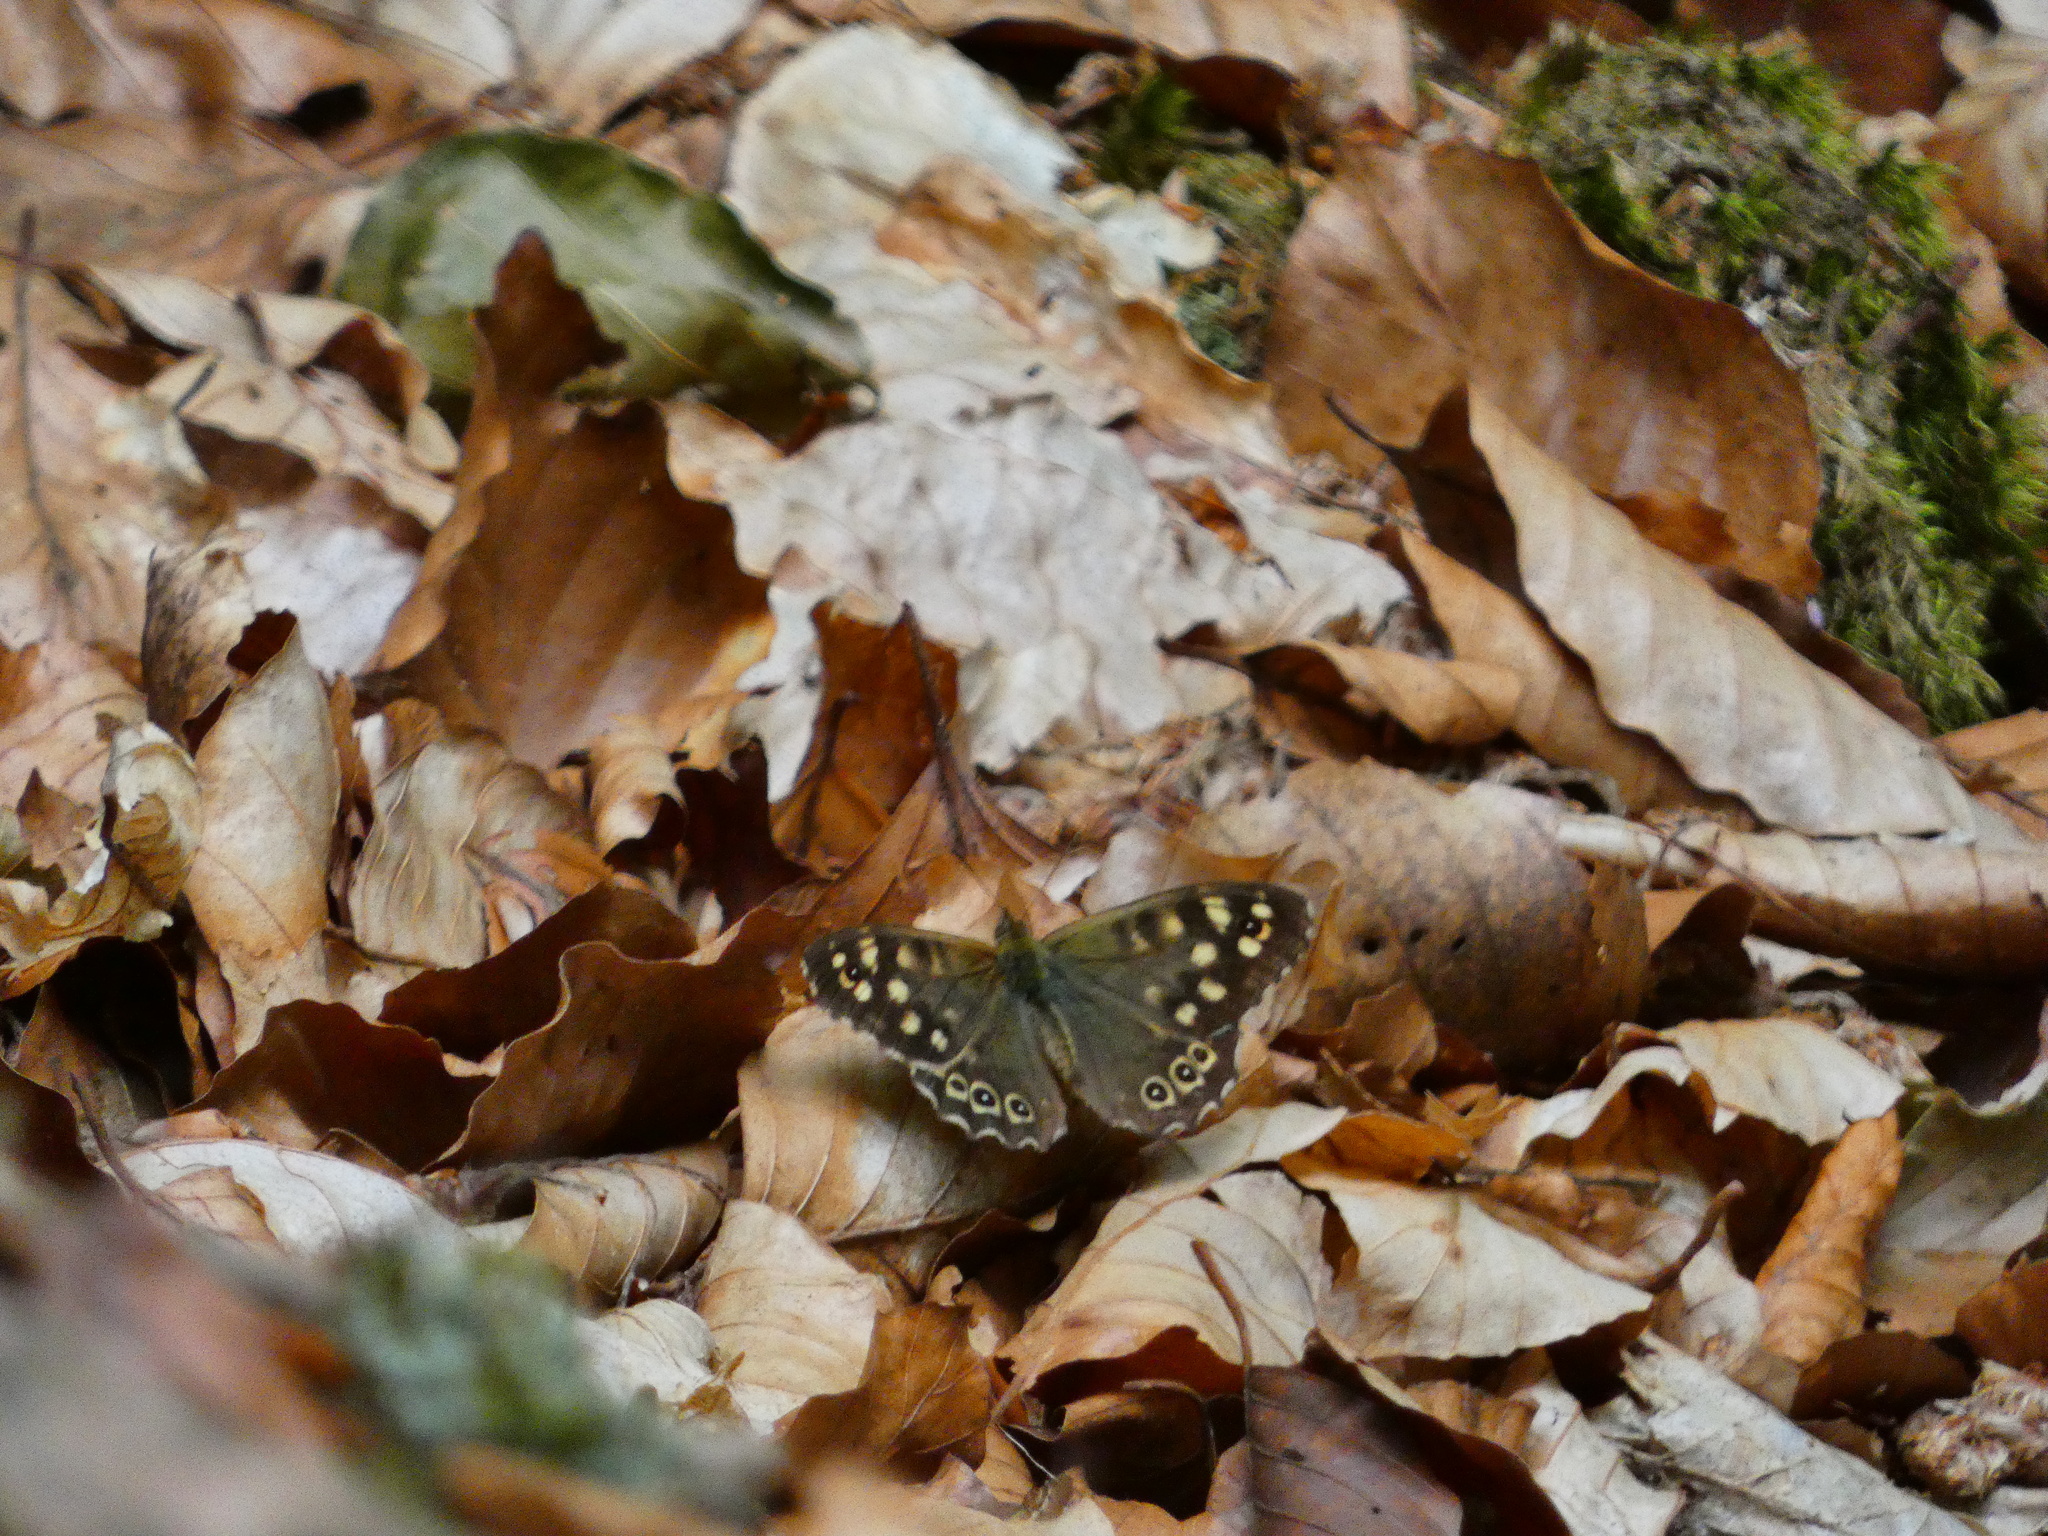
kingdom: Animalia
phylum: Arthropoda
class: Insecta
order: Lepidoptera
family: Nymphalidae
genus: Pararge
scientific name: Pararge aegeria
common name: Speckled wood
